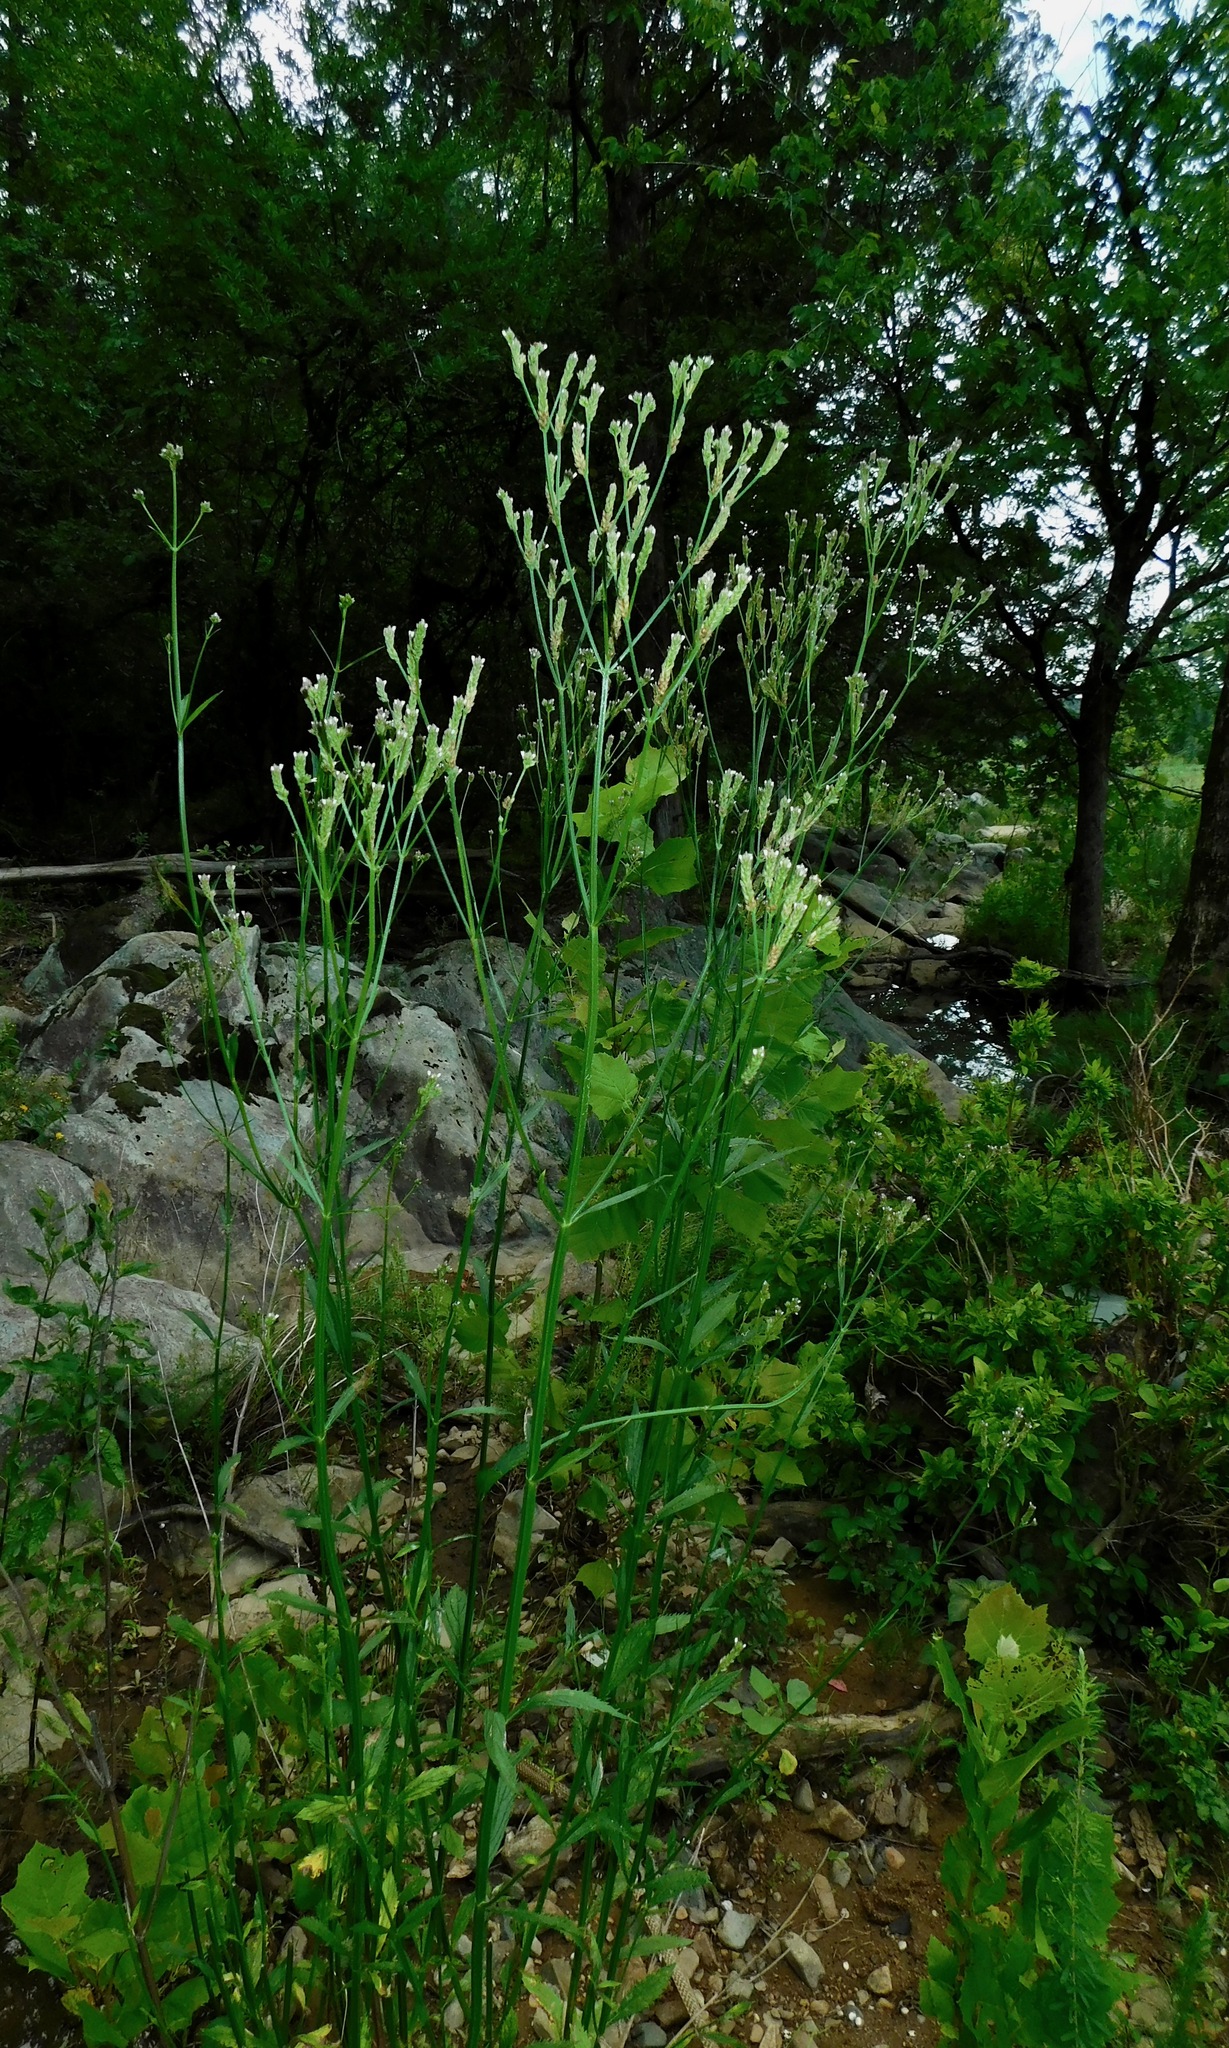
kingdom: Plantae
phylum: Tracheophyta
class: Magnoliopsida
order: Lamiales
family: Verbenaceae
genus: Verbena
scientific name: Verbena brasiliensis
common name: Brazilian vervain
